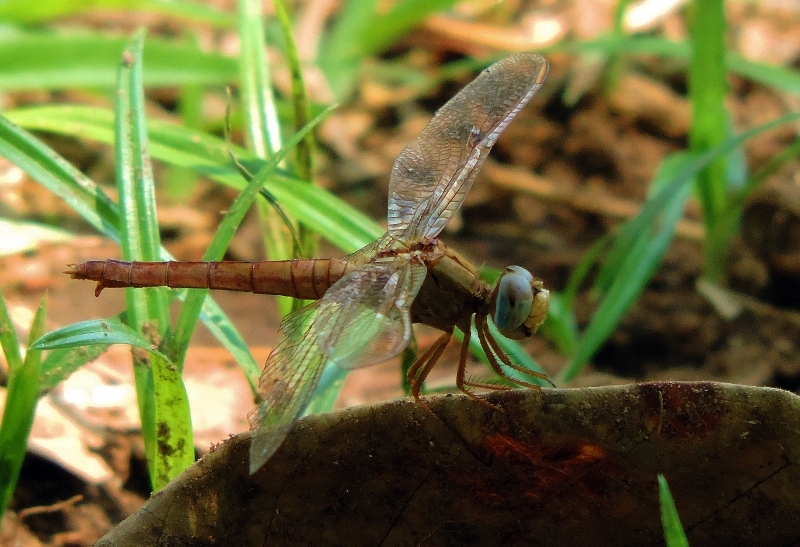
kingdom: Animalia
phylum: Arthropoda
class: Insecta
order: Odonata
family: Libellulidae
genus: Crocothemis
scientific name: Crocothemis erythraea
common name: Scarlet dragonfly
